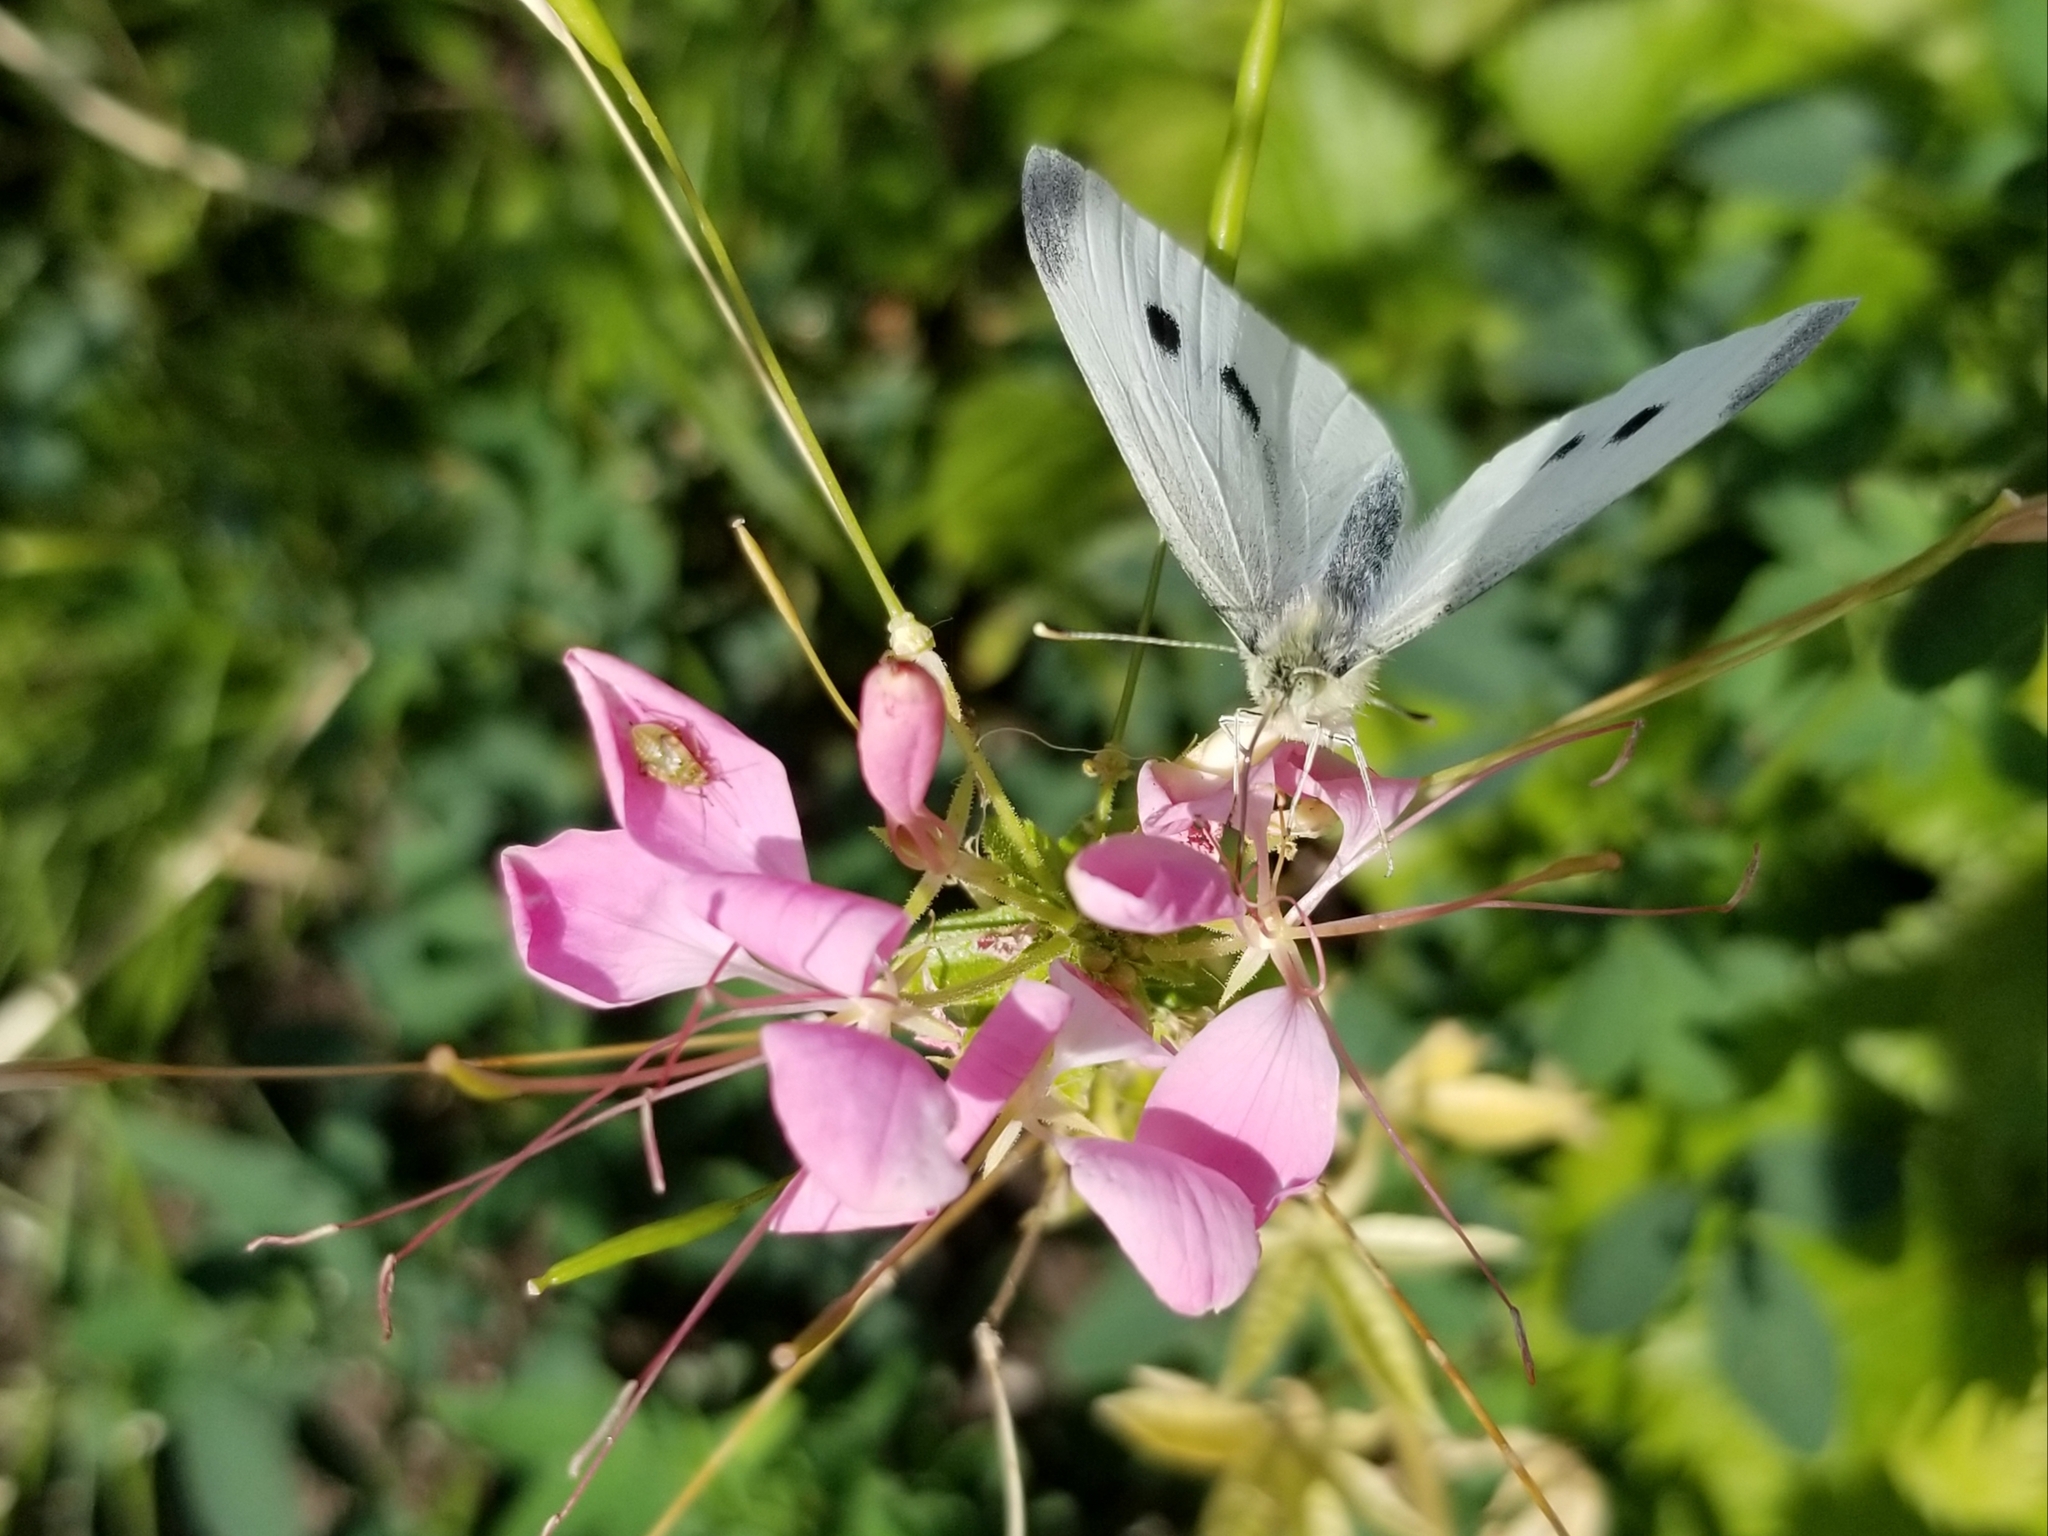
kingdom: Animalia
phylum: Arthropoda
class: Insecta
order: Lepidoptera
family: Pieridae
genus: Pieris
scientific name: Pieris rapae
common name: Small white
